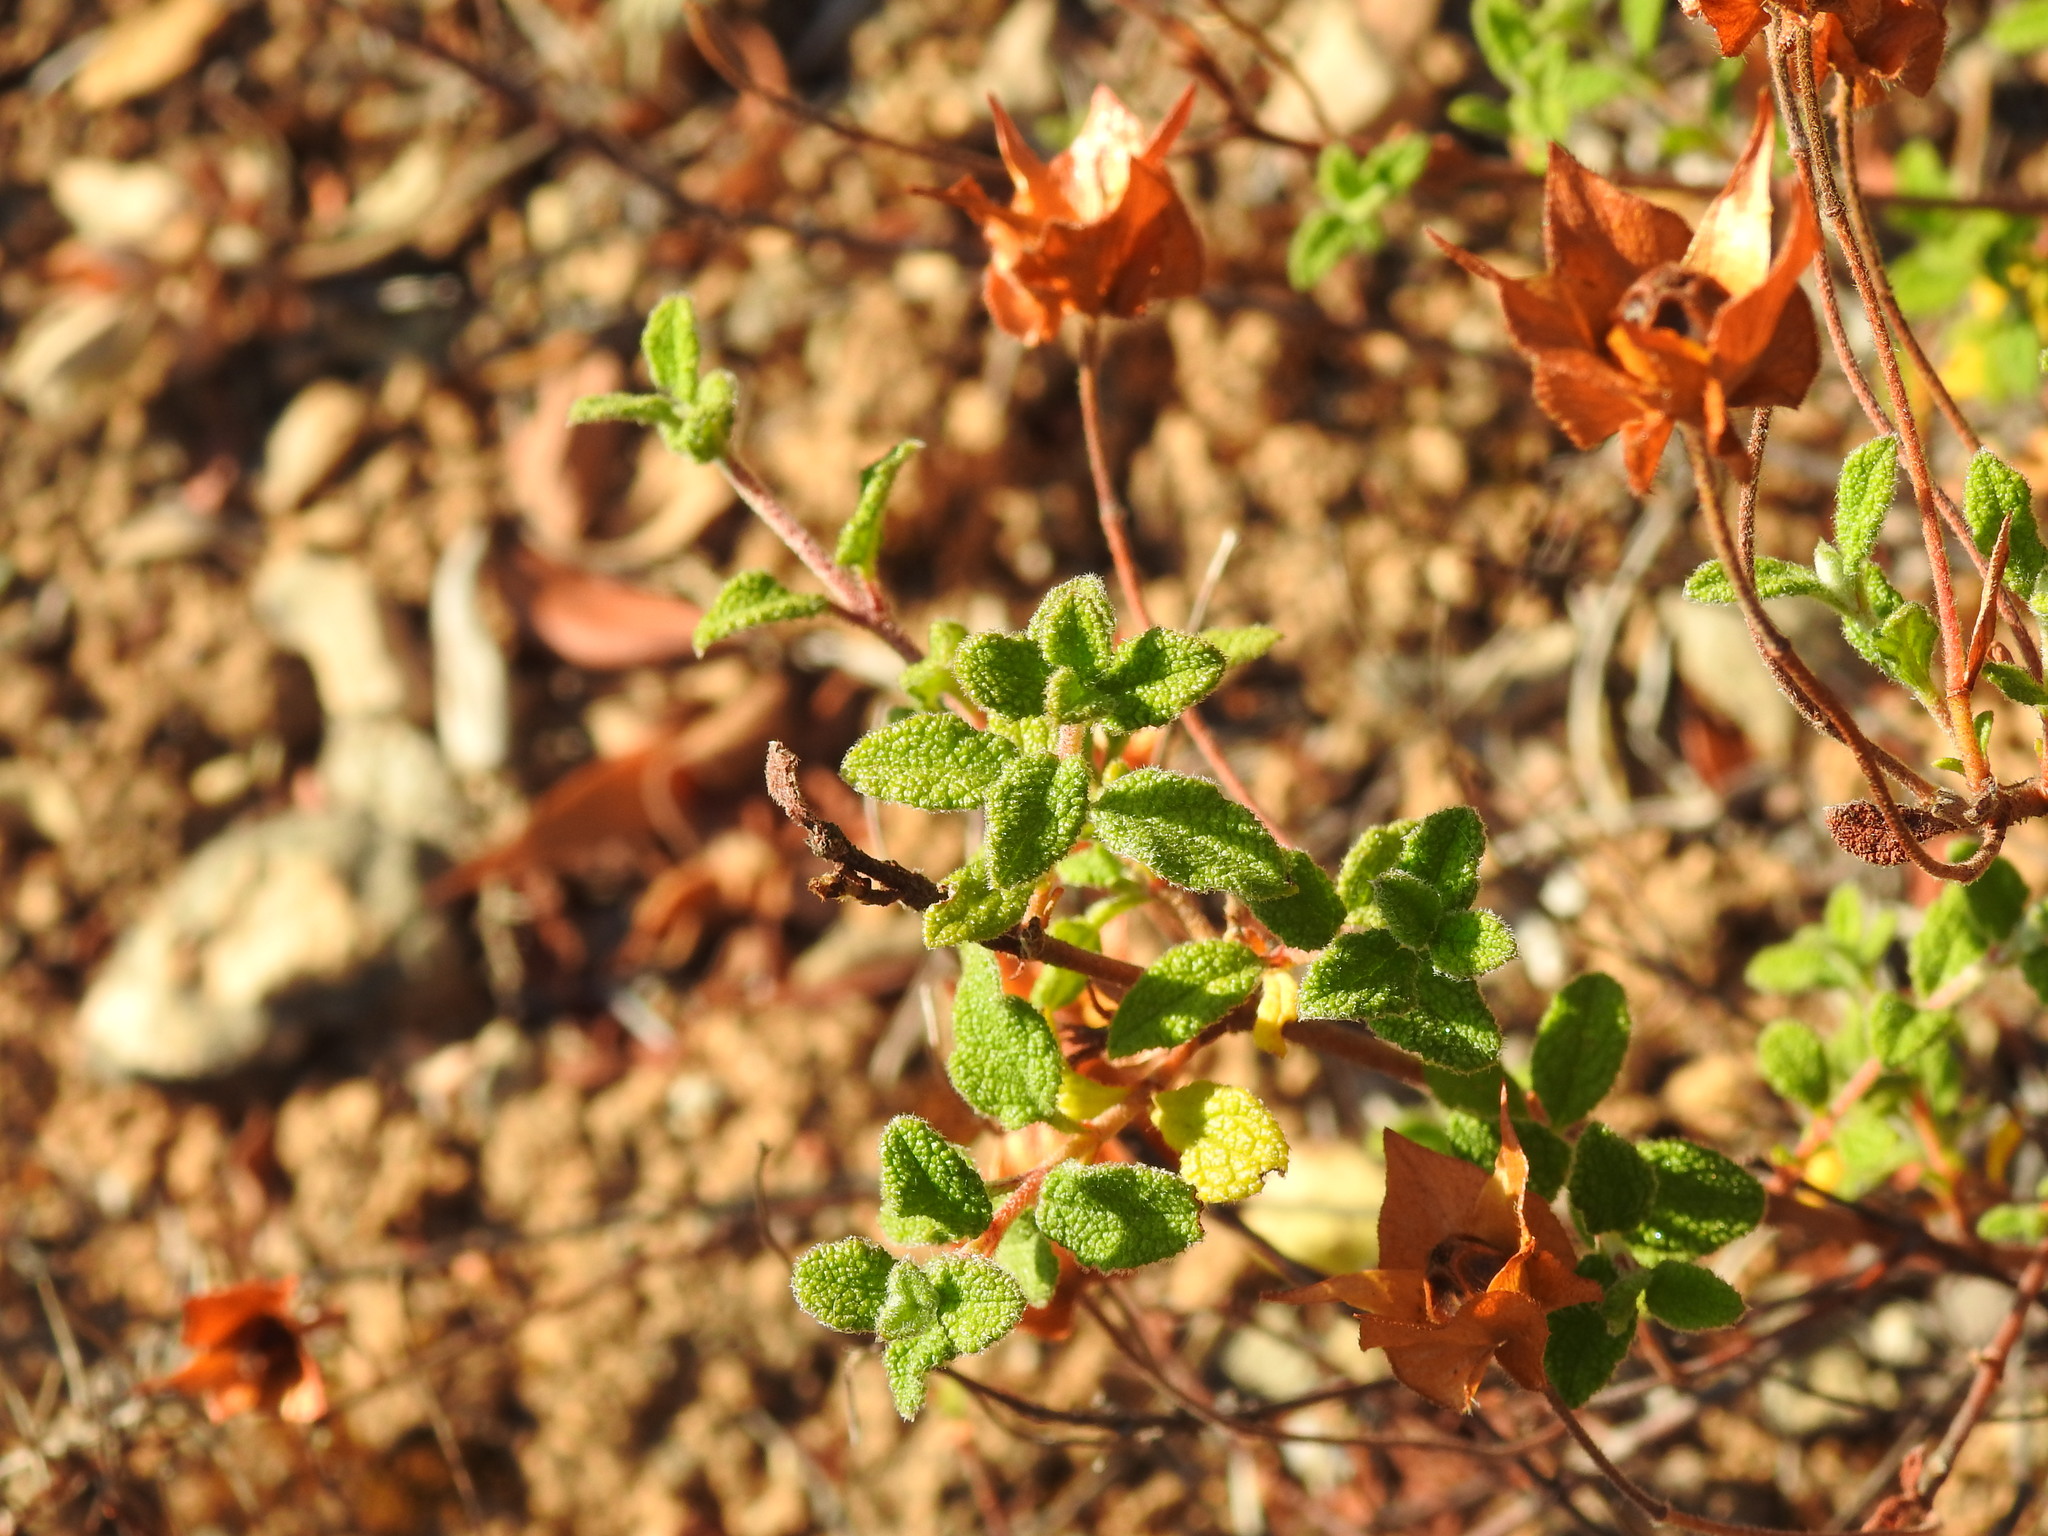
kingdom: Plantae
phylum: Tracheophyta
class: Magnoliopsida
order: Malvales
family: Cistaceae
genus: Cistus
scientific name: Cistus salviifolius
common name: Salvia cistus
